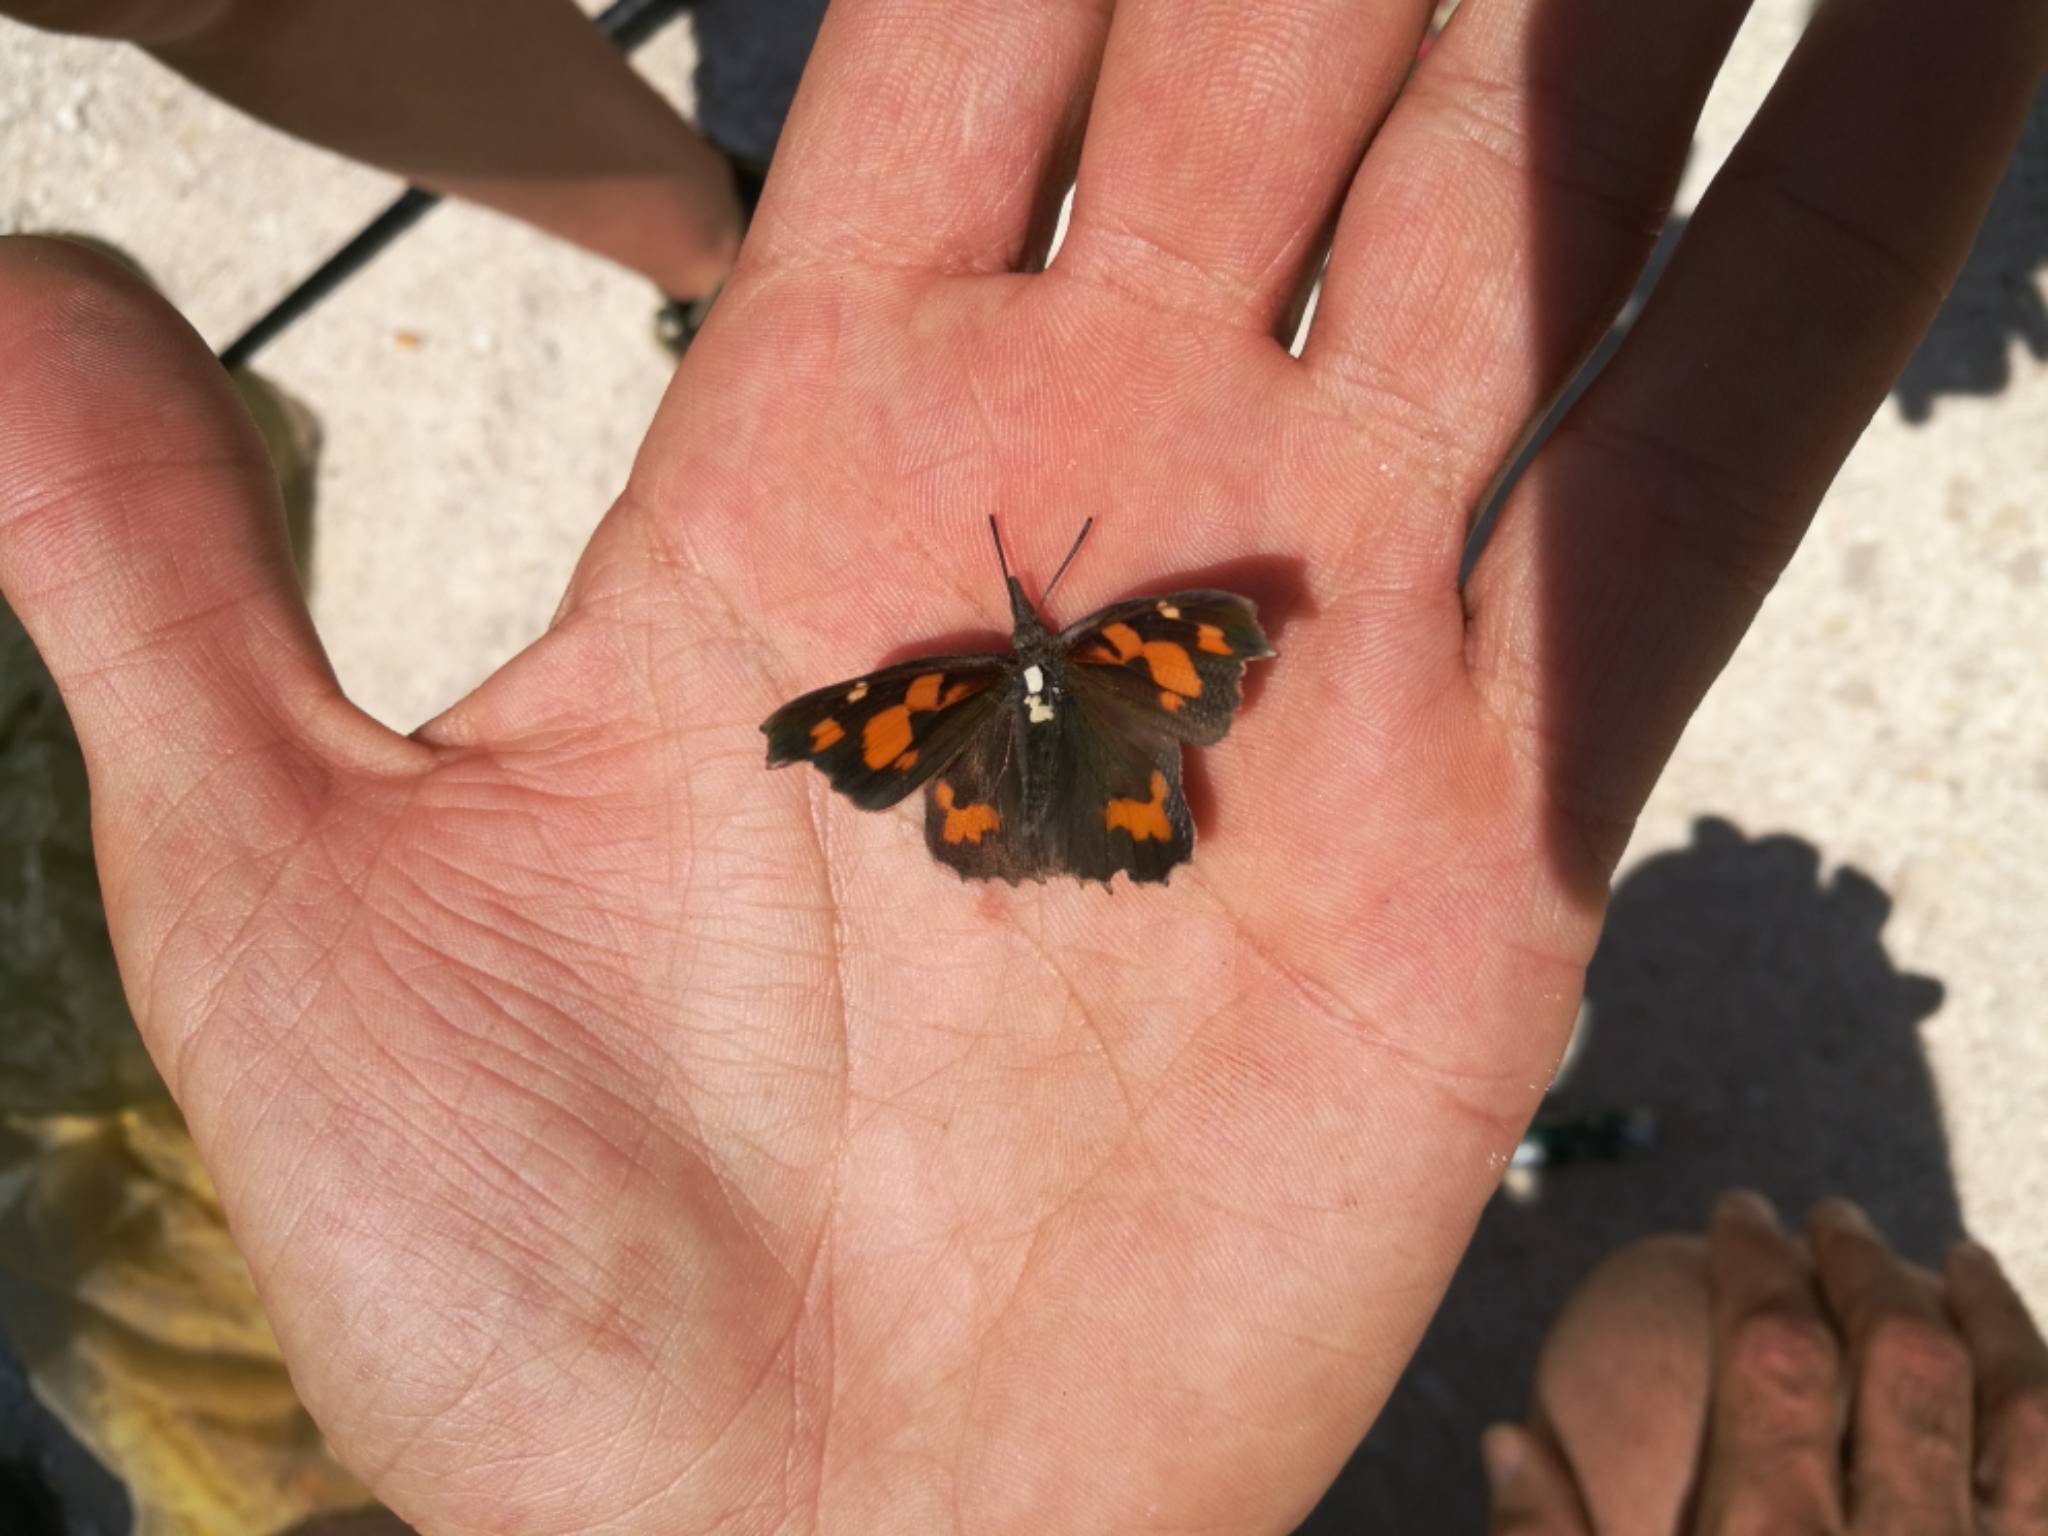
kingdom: Animalia
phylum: Arthropoda
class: Insecta
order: Lepidoptera
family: Nymphalidae
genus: Libythea
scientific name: Libythea celtis
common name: Nettle-tree butterfly
